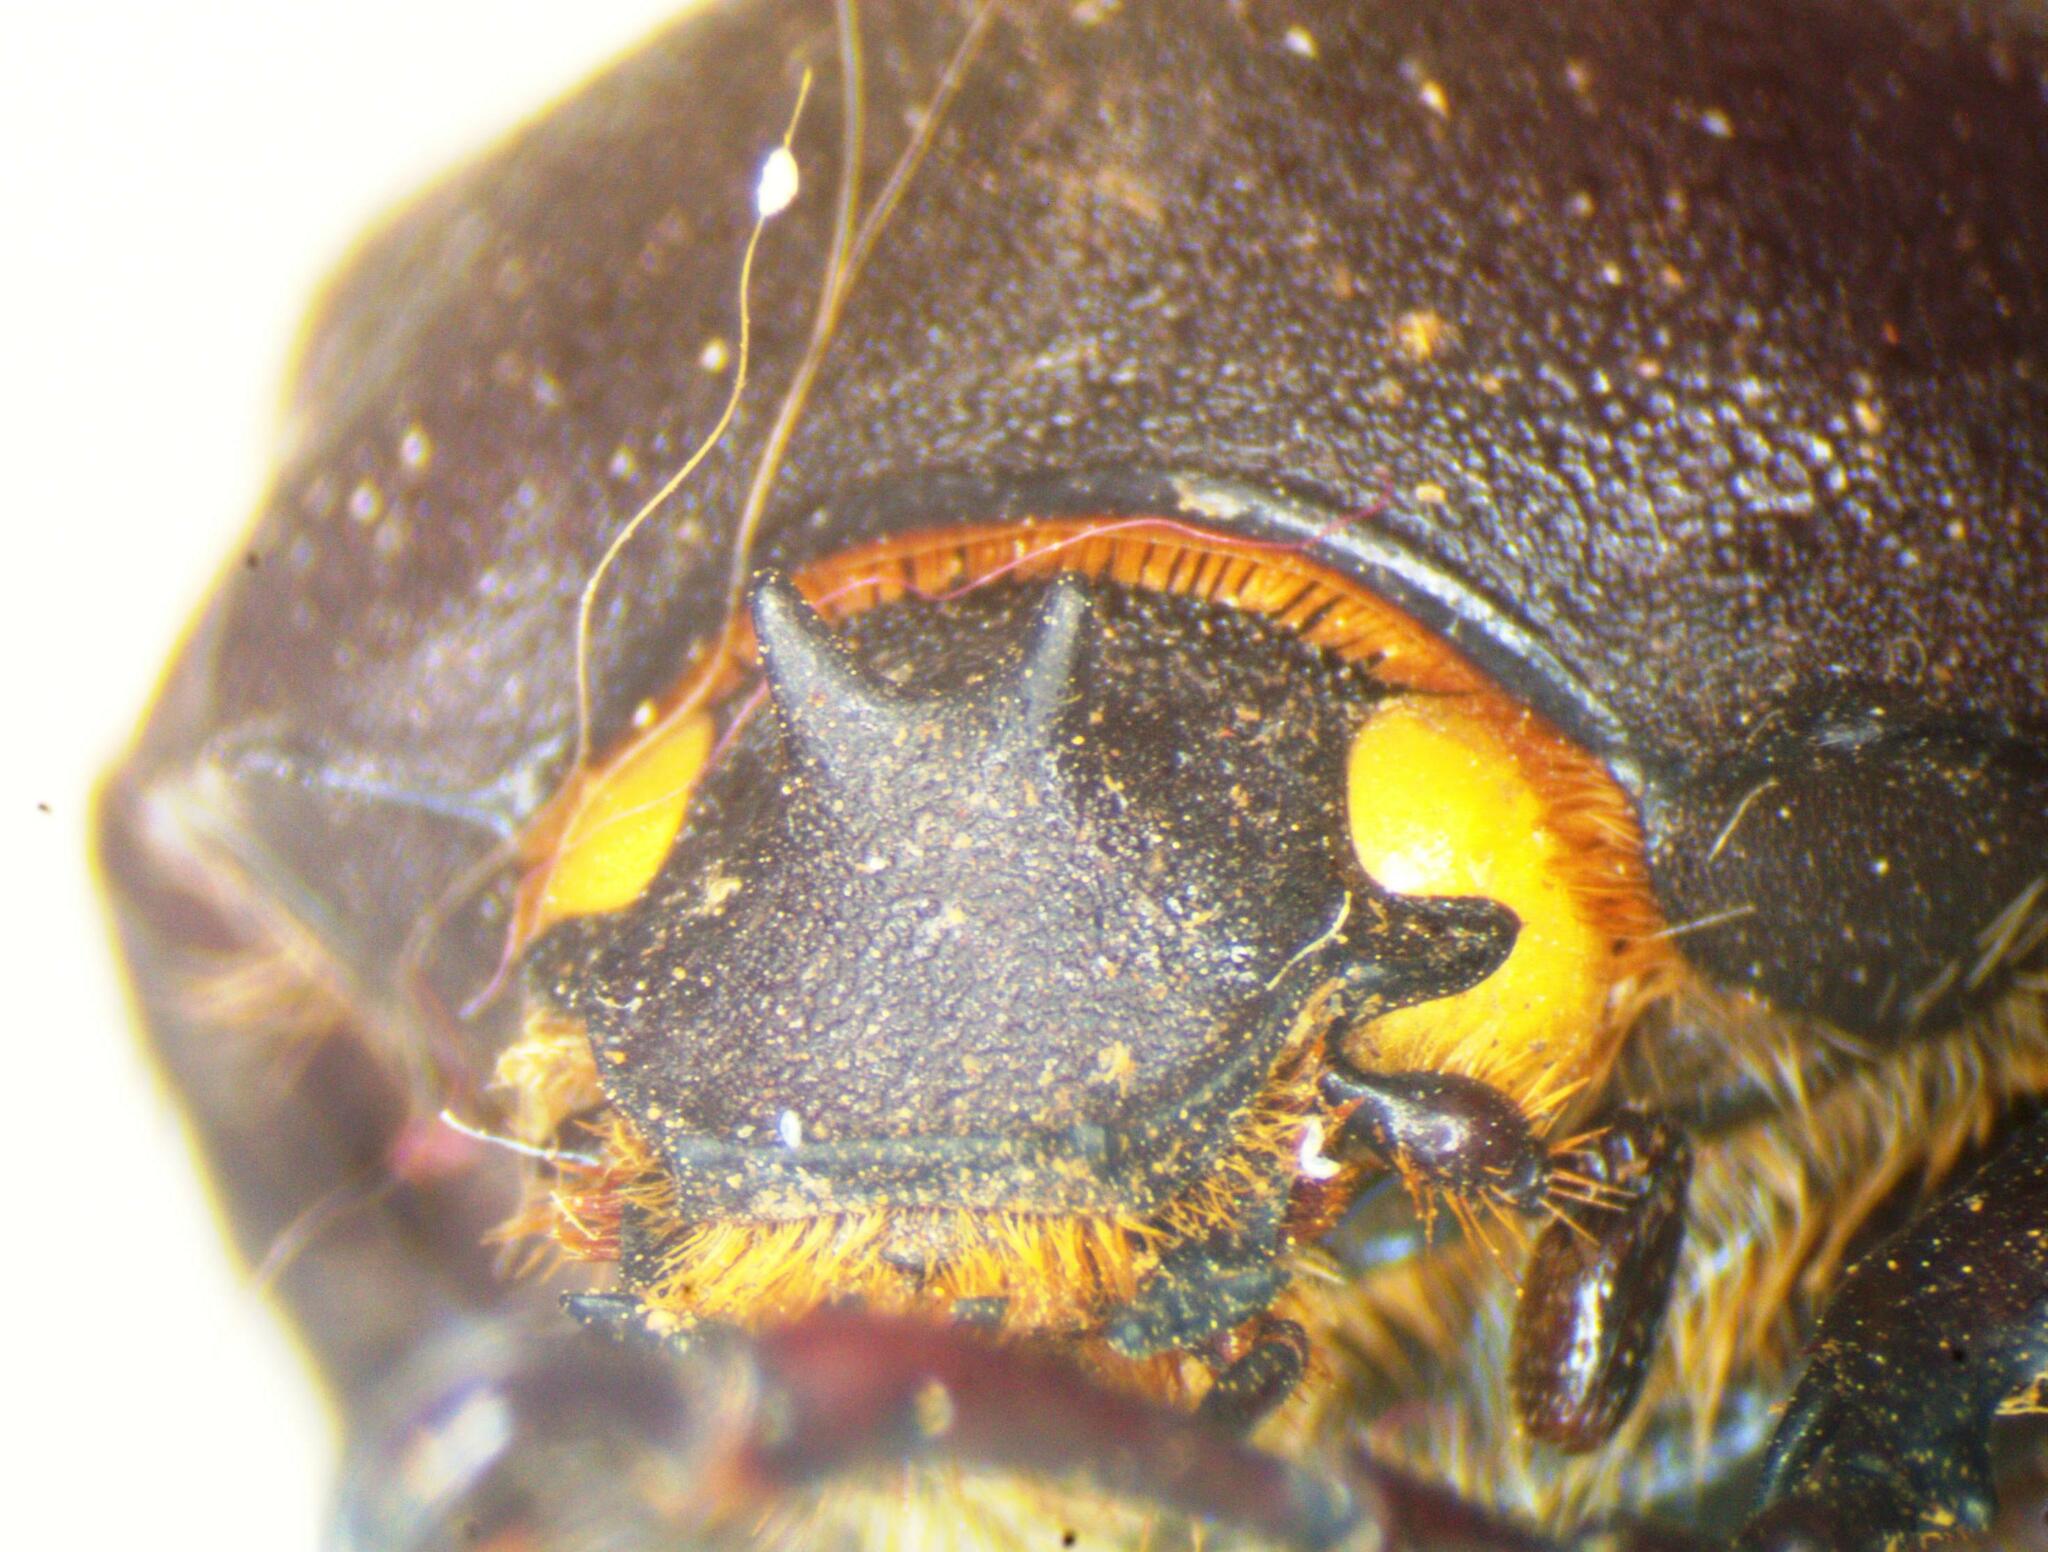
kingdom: Animalia
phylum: Arthropoda
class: Insecta
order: Coleoptera
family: Scarabaeidae
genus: Megasoma
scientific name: Megasoma punctulatum
